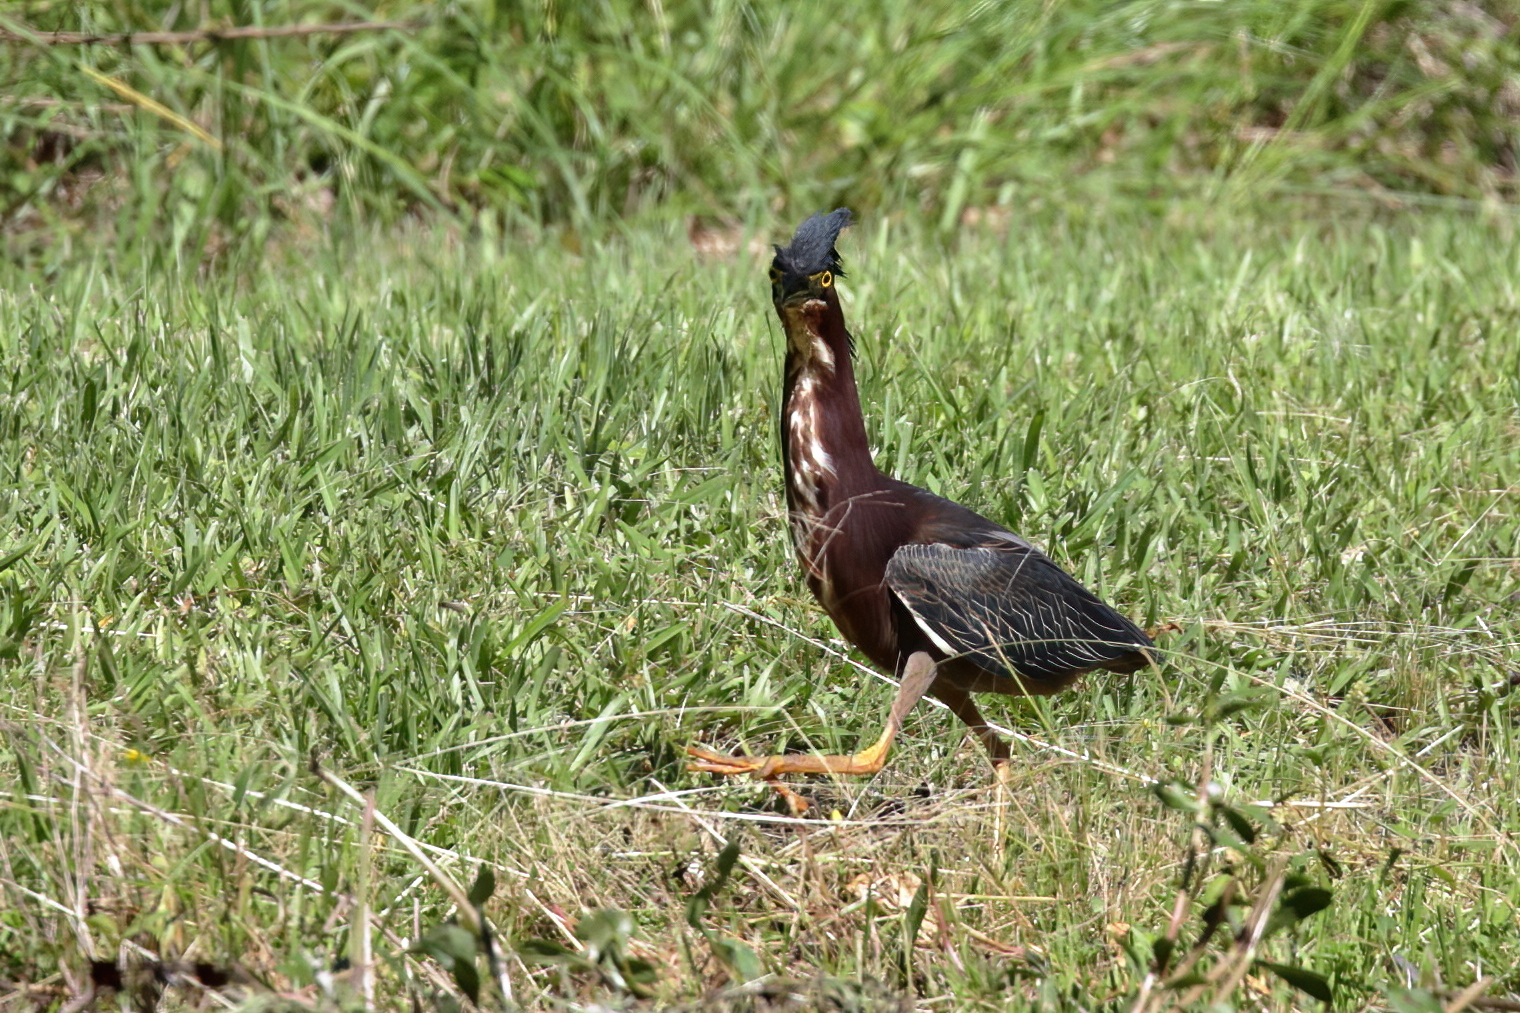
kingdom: Animalia
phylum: Chordata
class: Aves
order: Pelecaniformes
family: Ardeidae
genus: Butorides
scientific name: Butorides virescens
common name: Green heron
